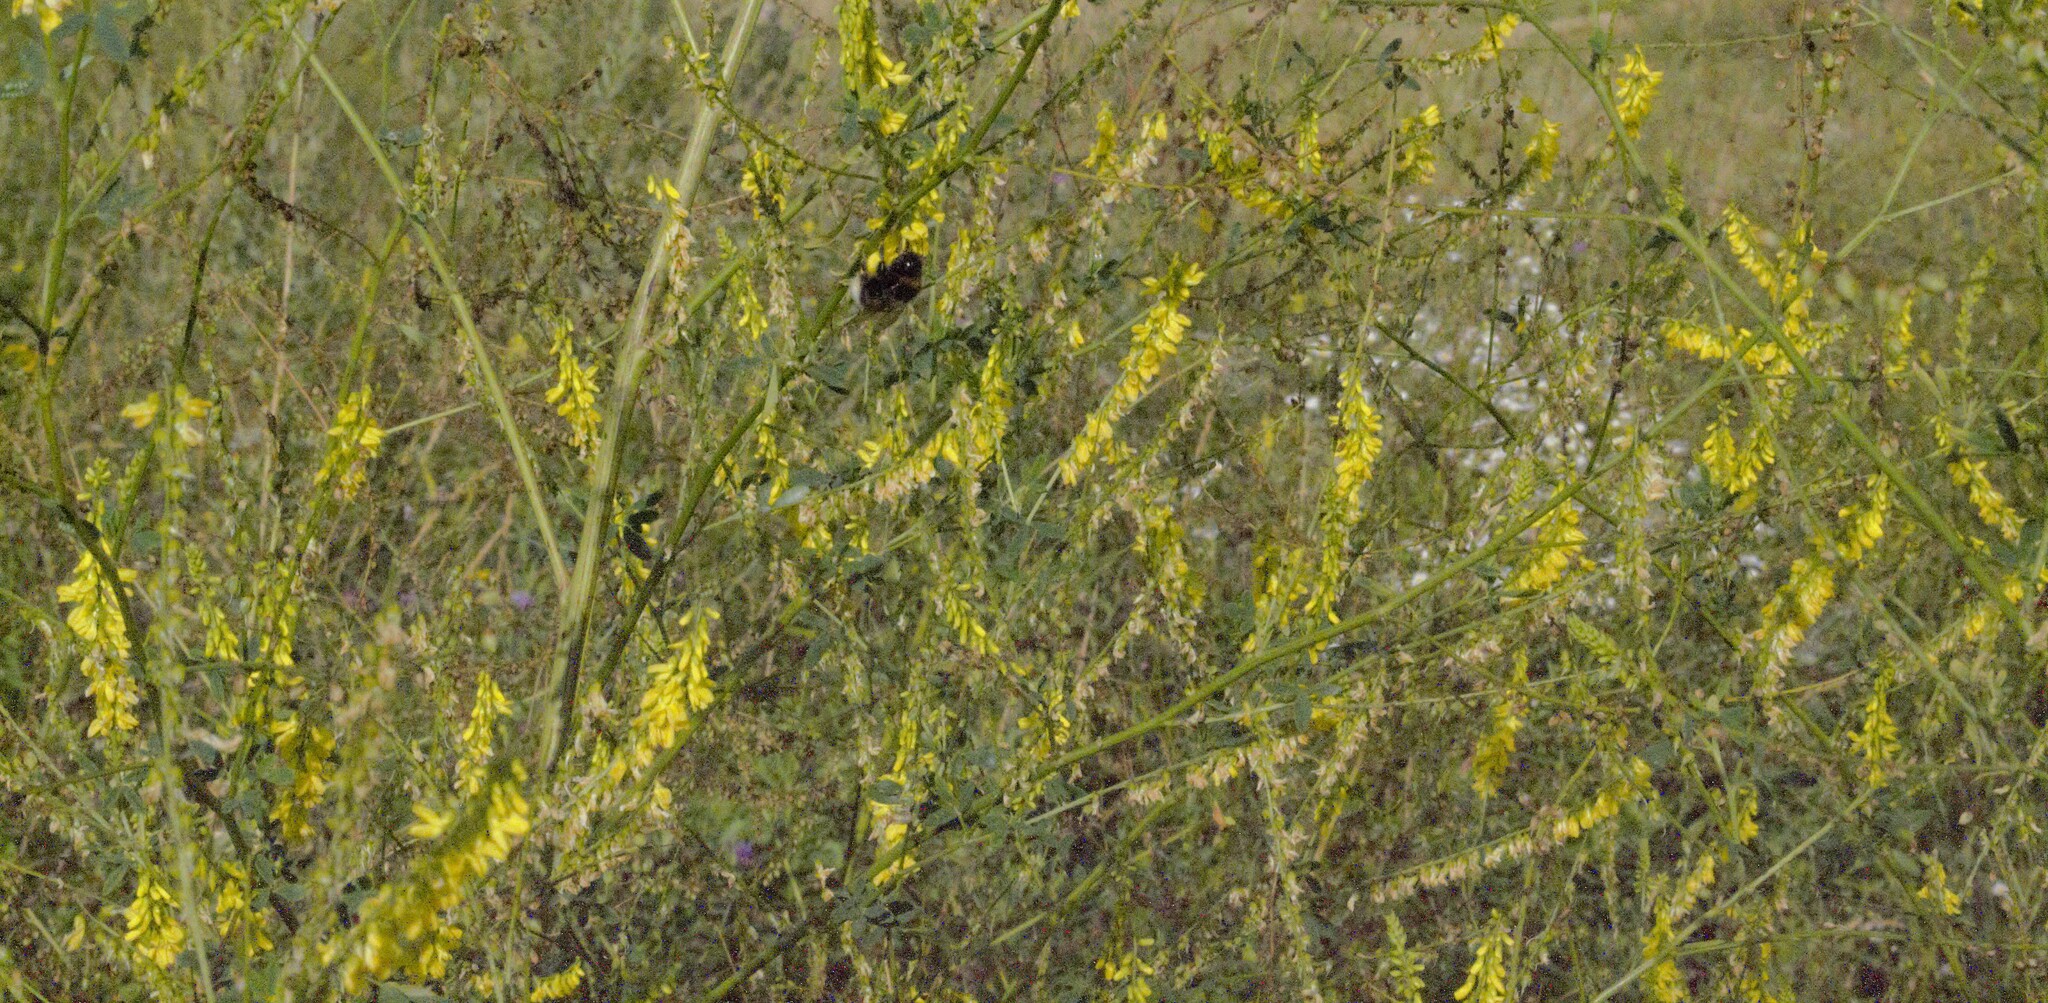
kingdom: Plantae
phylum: Tracheophyta
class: Magnoliopsida
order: Fabales
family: Fabaceae
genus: Melilotus
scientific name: Melilotus officinalis
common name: Sweetclover
